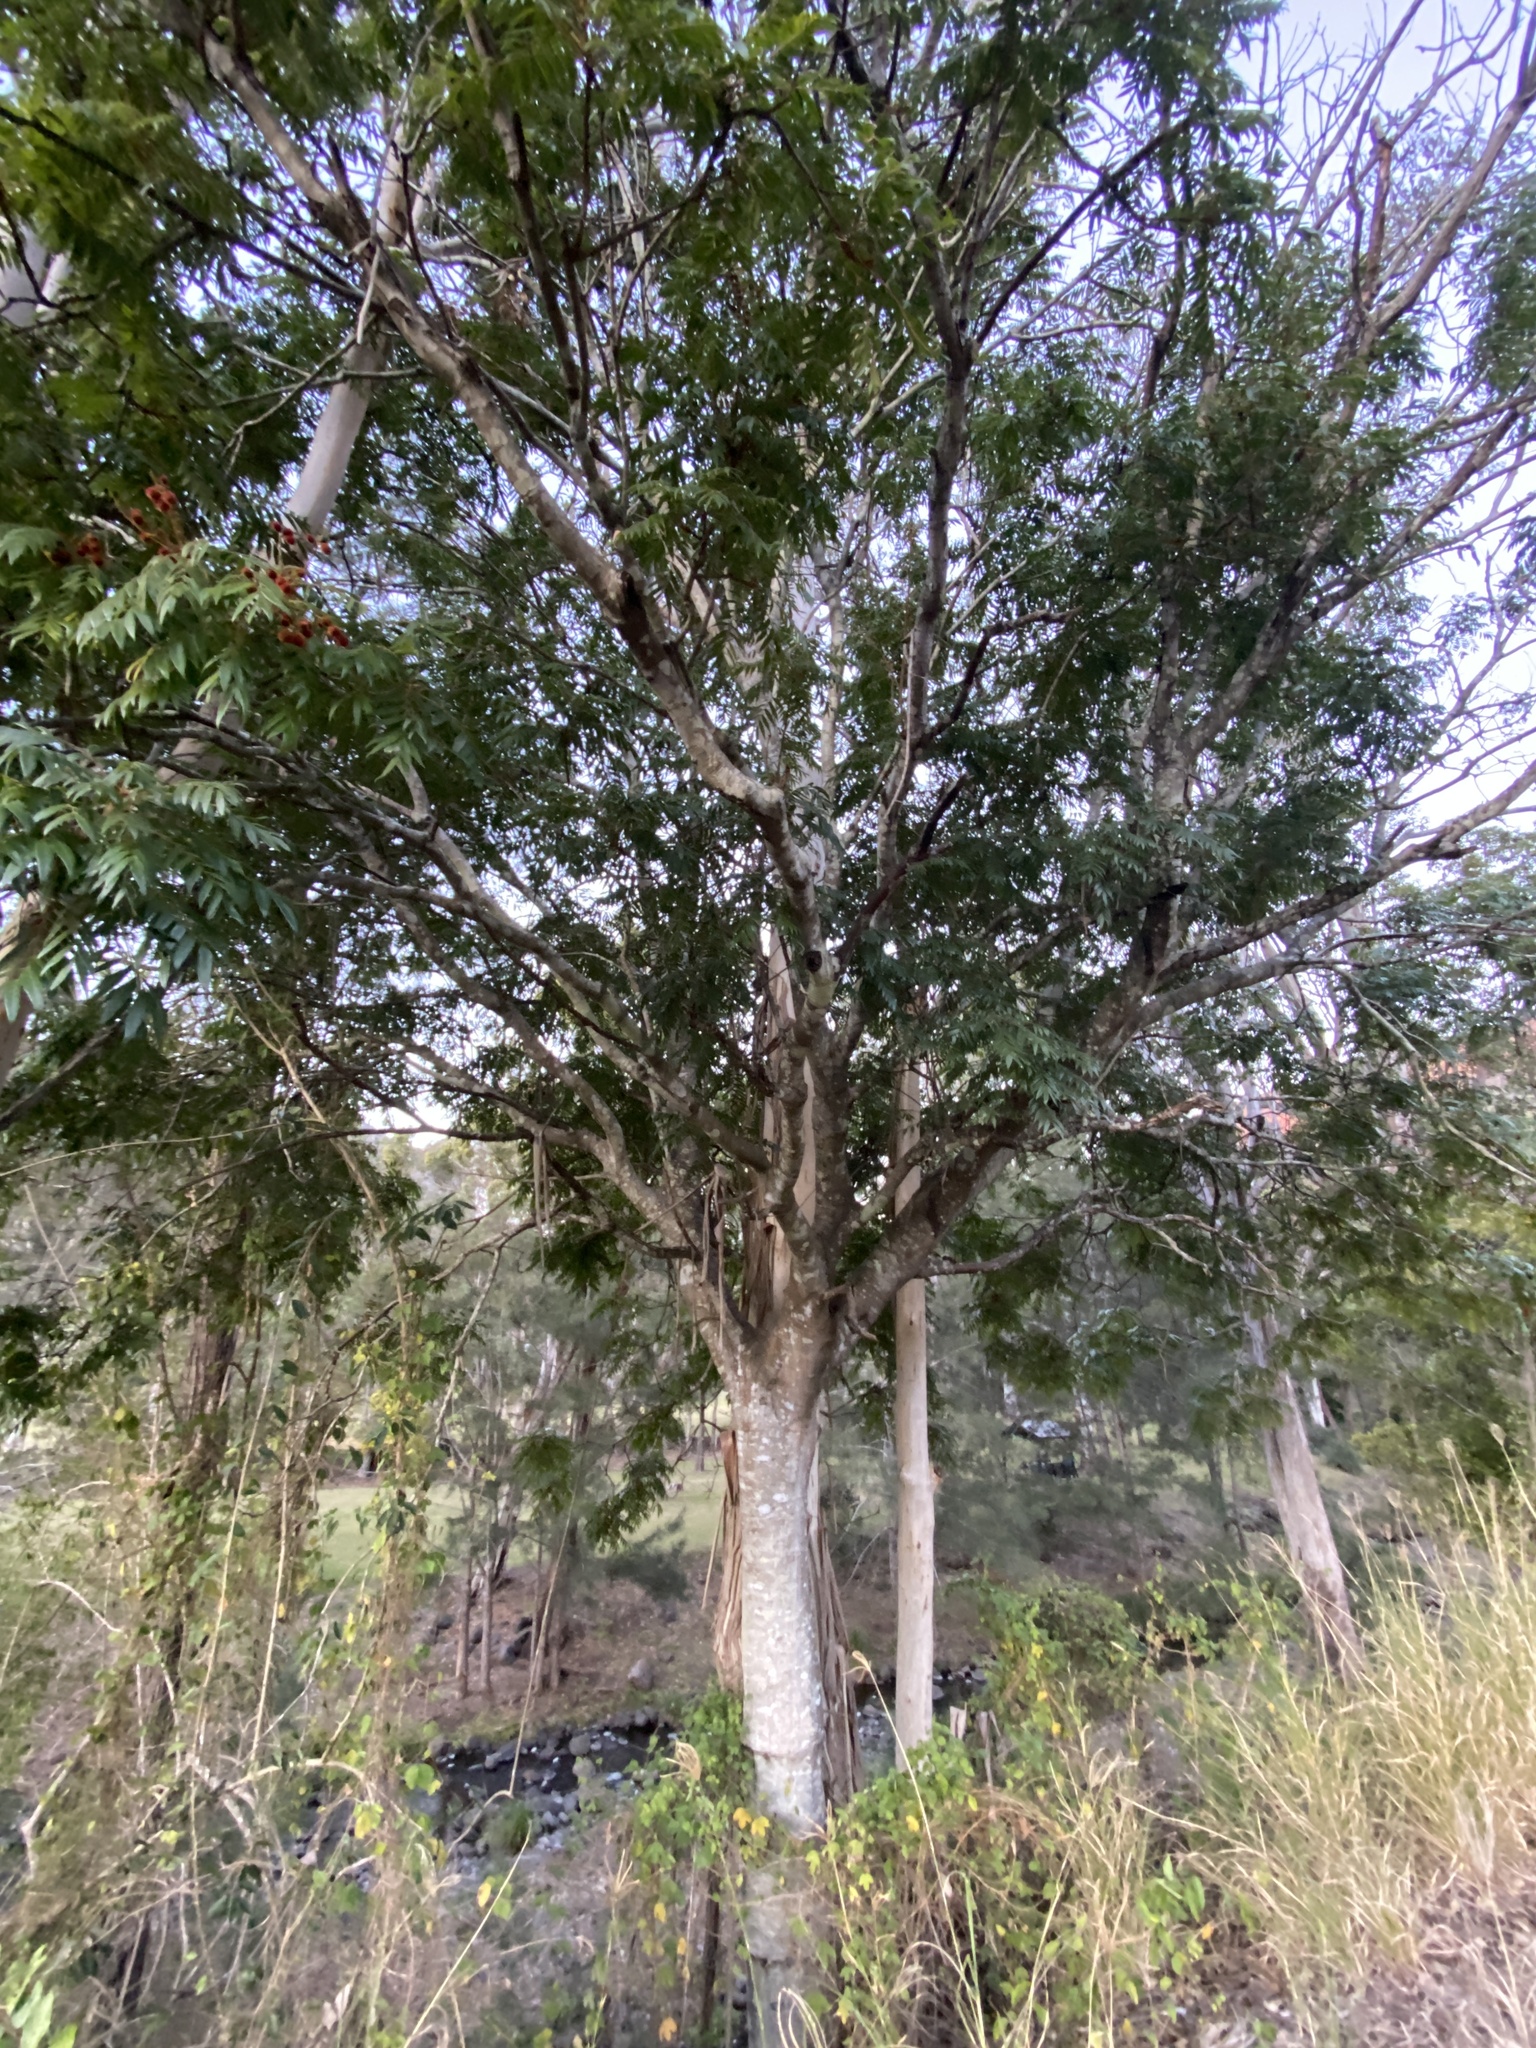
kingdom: Plantae
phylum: Tracheophyta
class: Magnoliopsida
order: Sapindales
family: Sapindaceae
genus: Jagera
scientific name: Jagera pseudorhus
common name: Fern-leaf-tamarind
